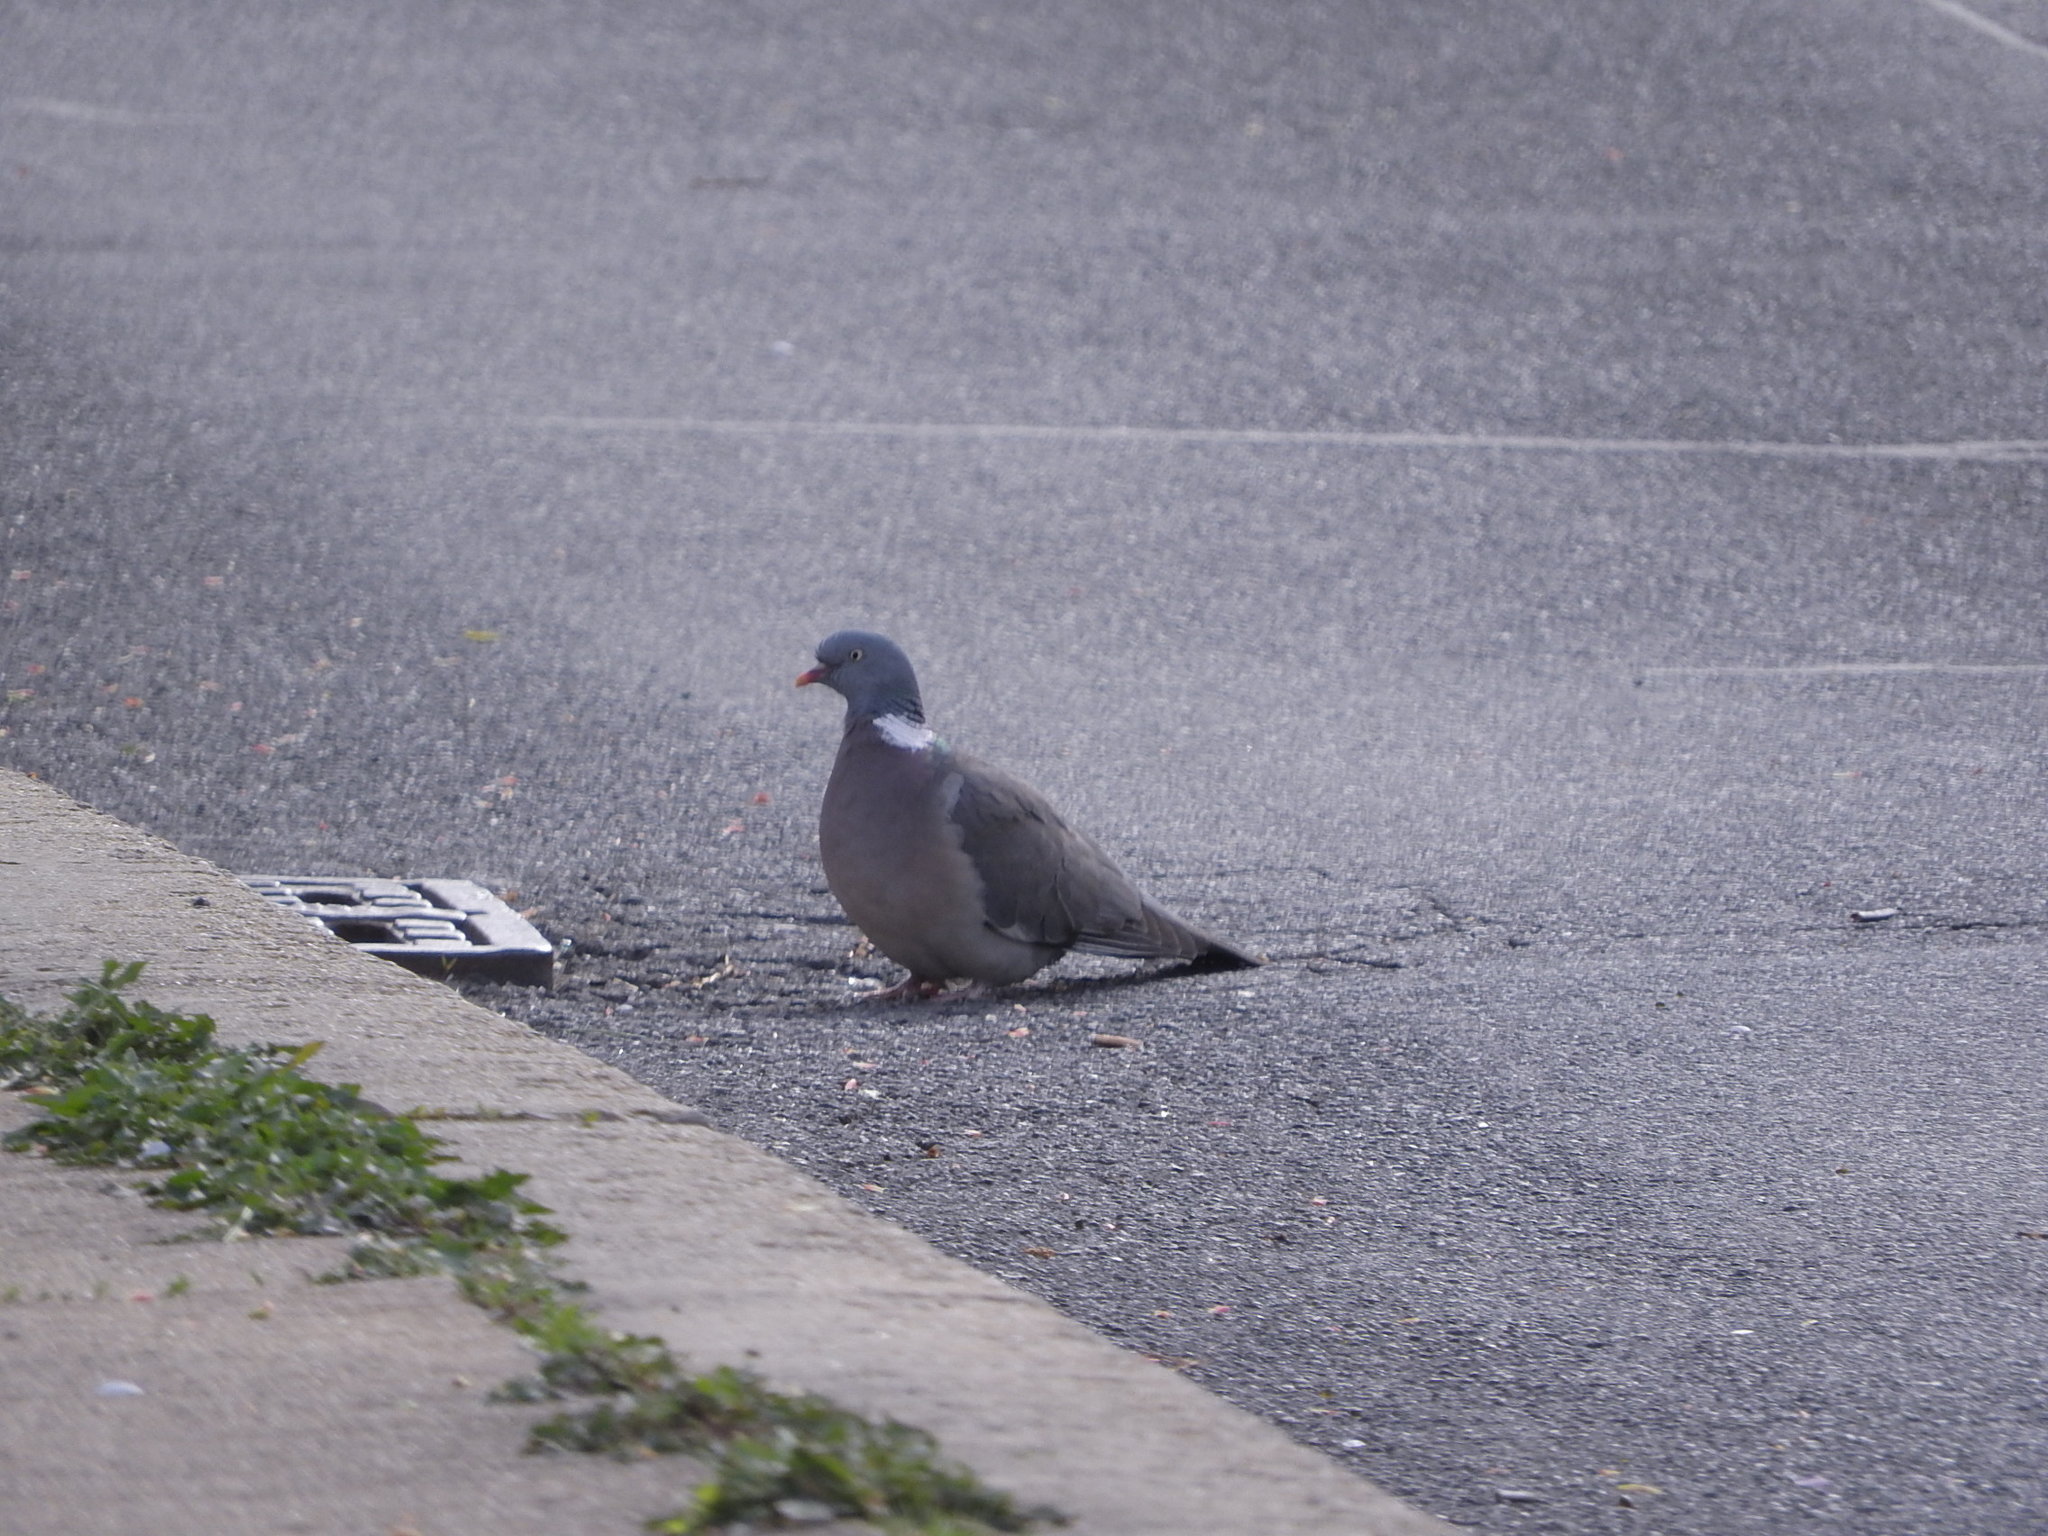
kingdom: Animalia
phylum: Chordata
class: Aves
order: Columbiformes
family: Columbidae
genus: Columba
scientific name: Columba palumbus
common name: Common wood pigeon
